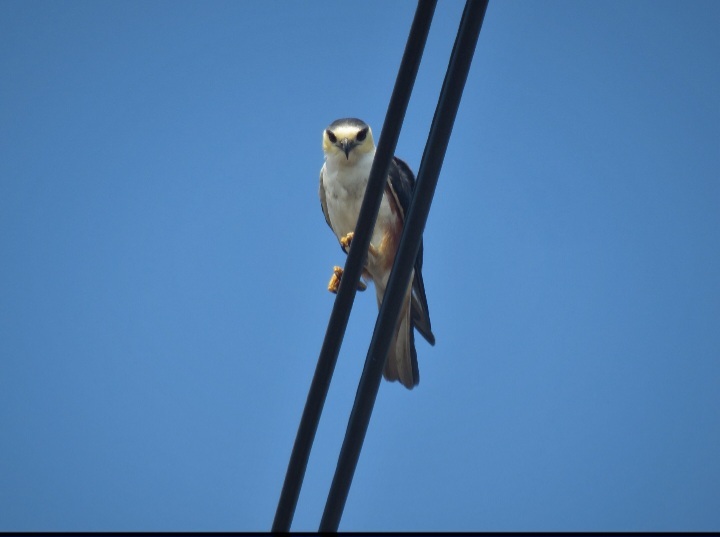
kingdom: Animalia
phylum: Chordata
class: Aves
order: Accipitriformes
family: Accipitridae
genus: Gampsonyx
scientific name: Gampsonyx swainsonii
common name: Pearl kite
